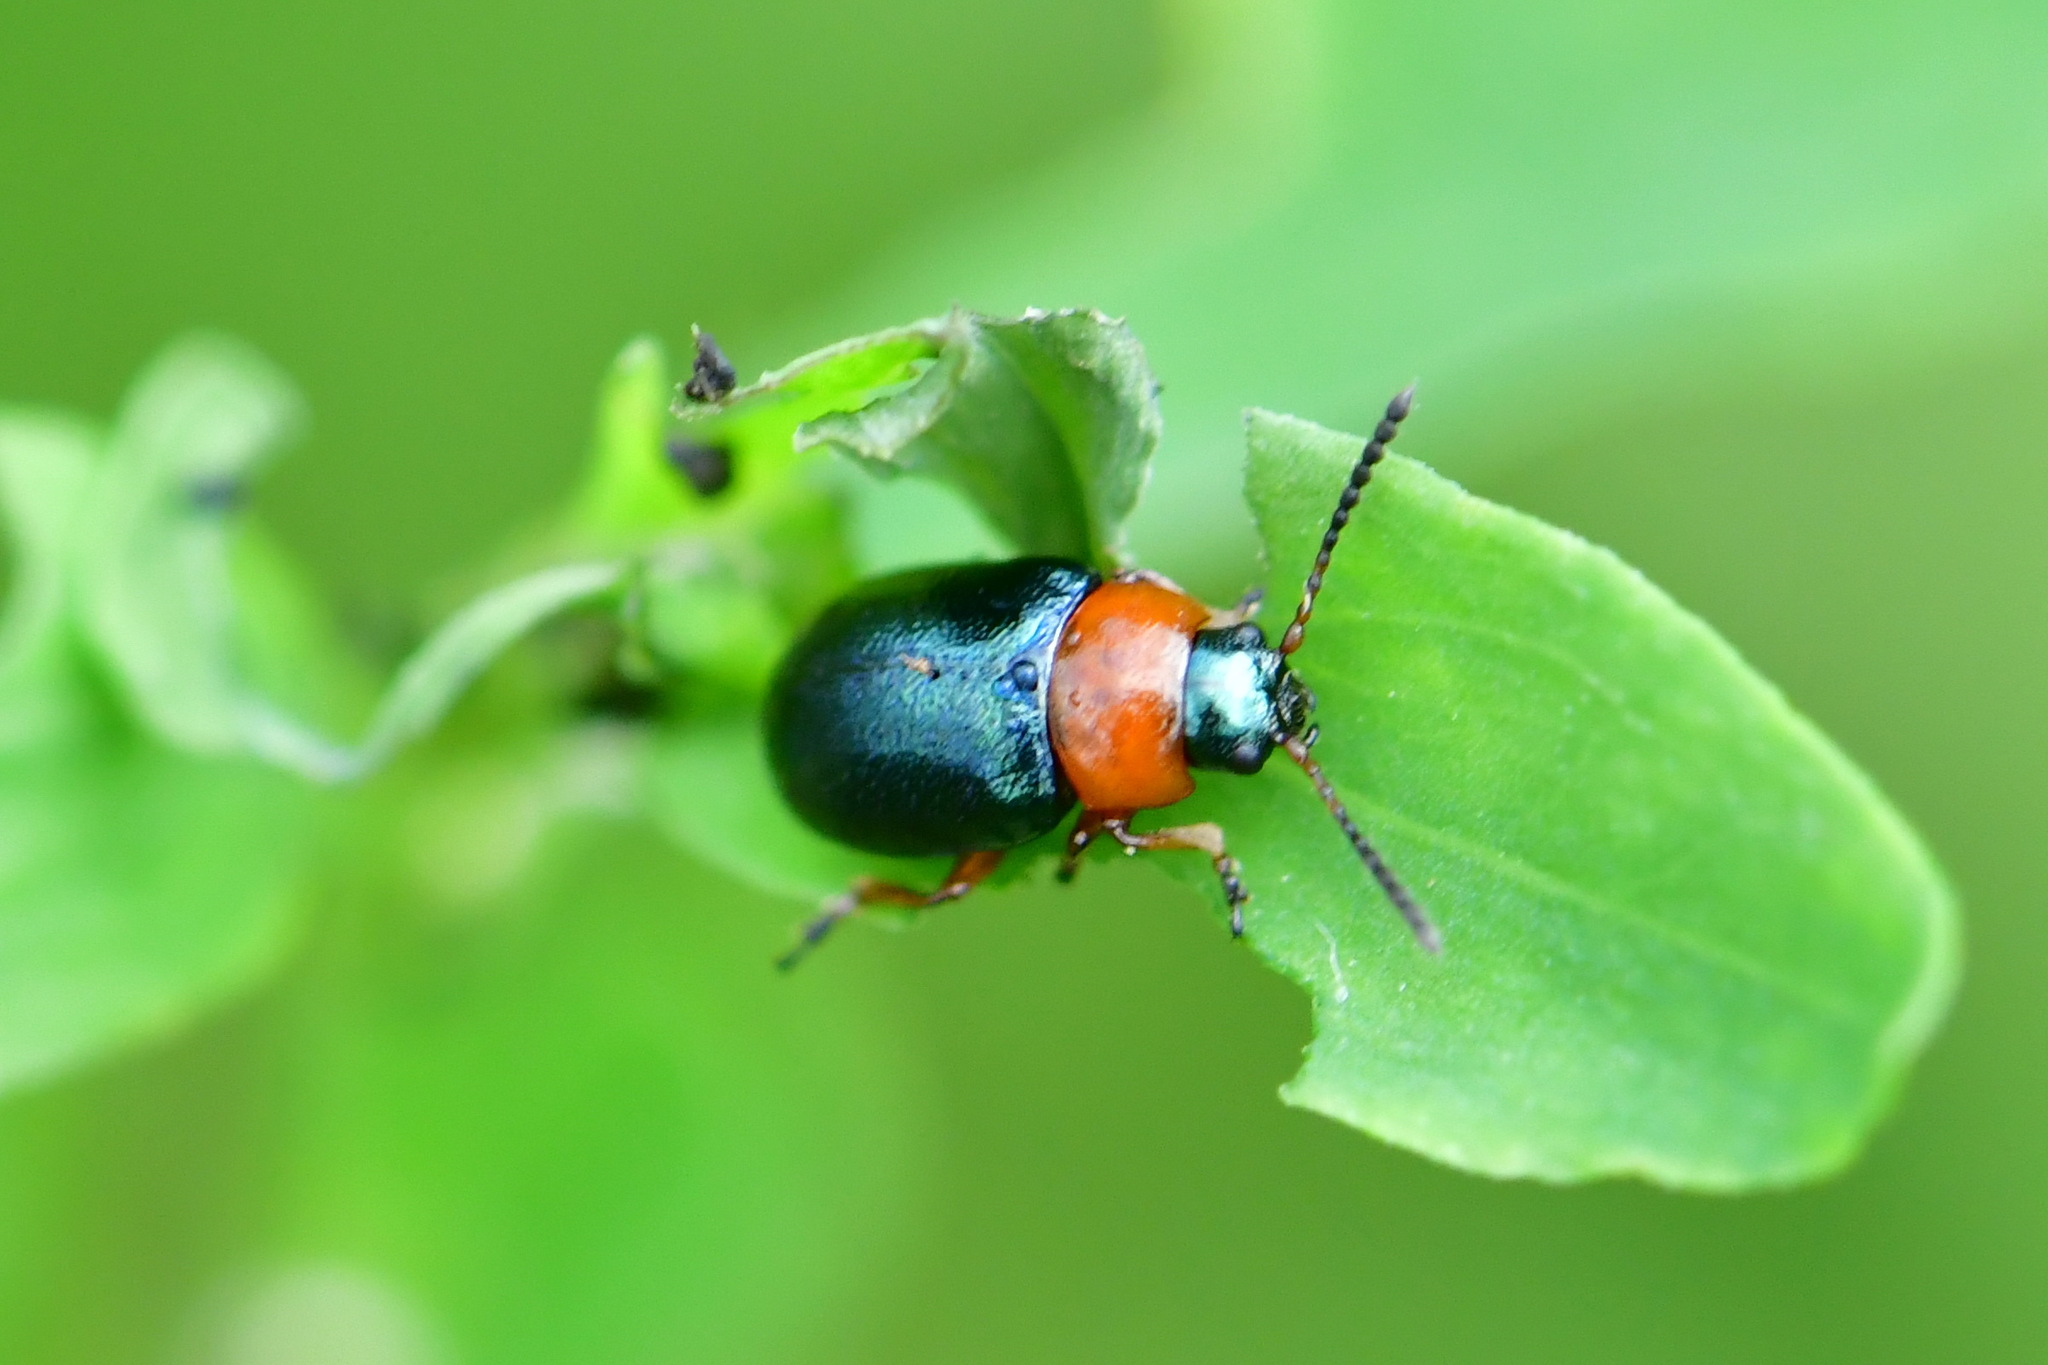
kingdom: Animalia
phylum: Arthropoda
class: Insecta
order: Coleoptera
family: Chrysomelidae
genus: Gastrophysa
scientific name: Gastrophysa polygoni
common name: Knotweed leaf beetle
